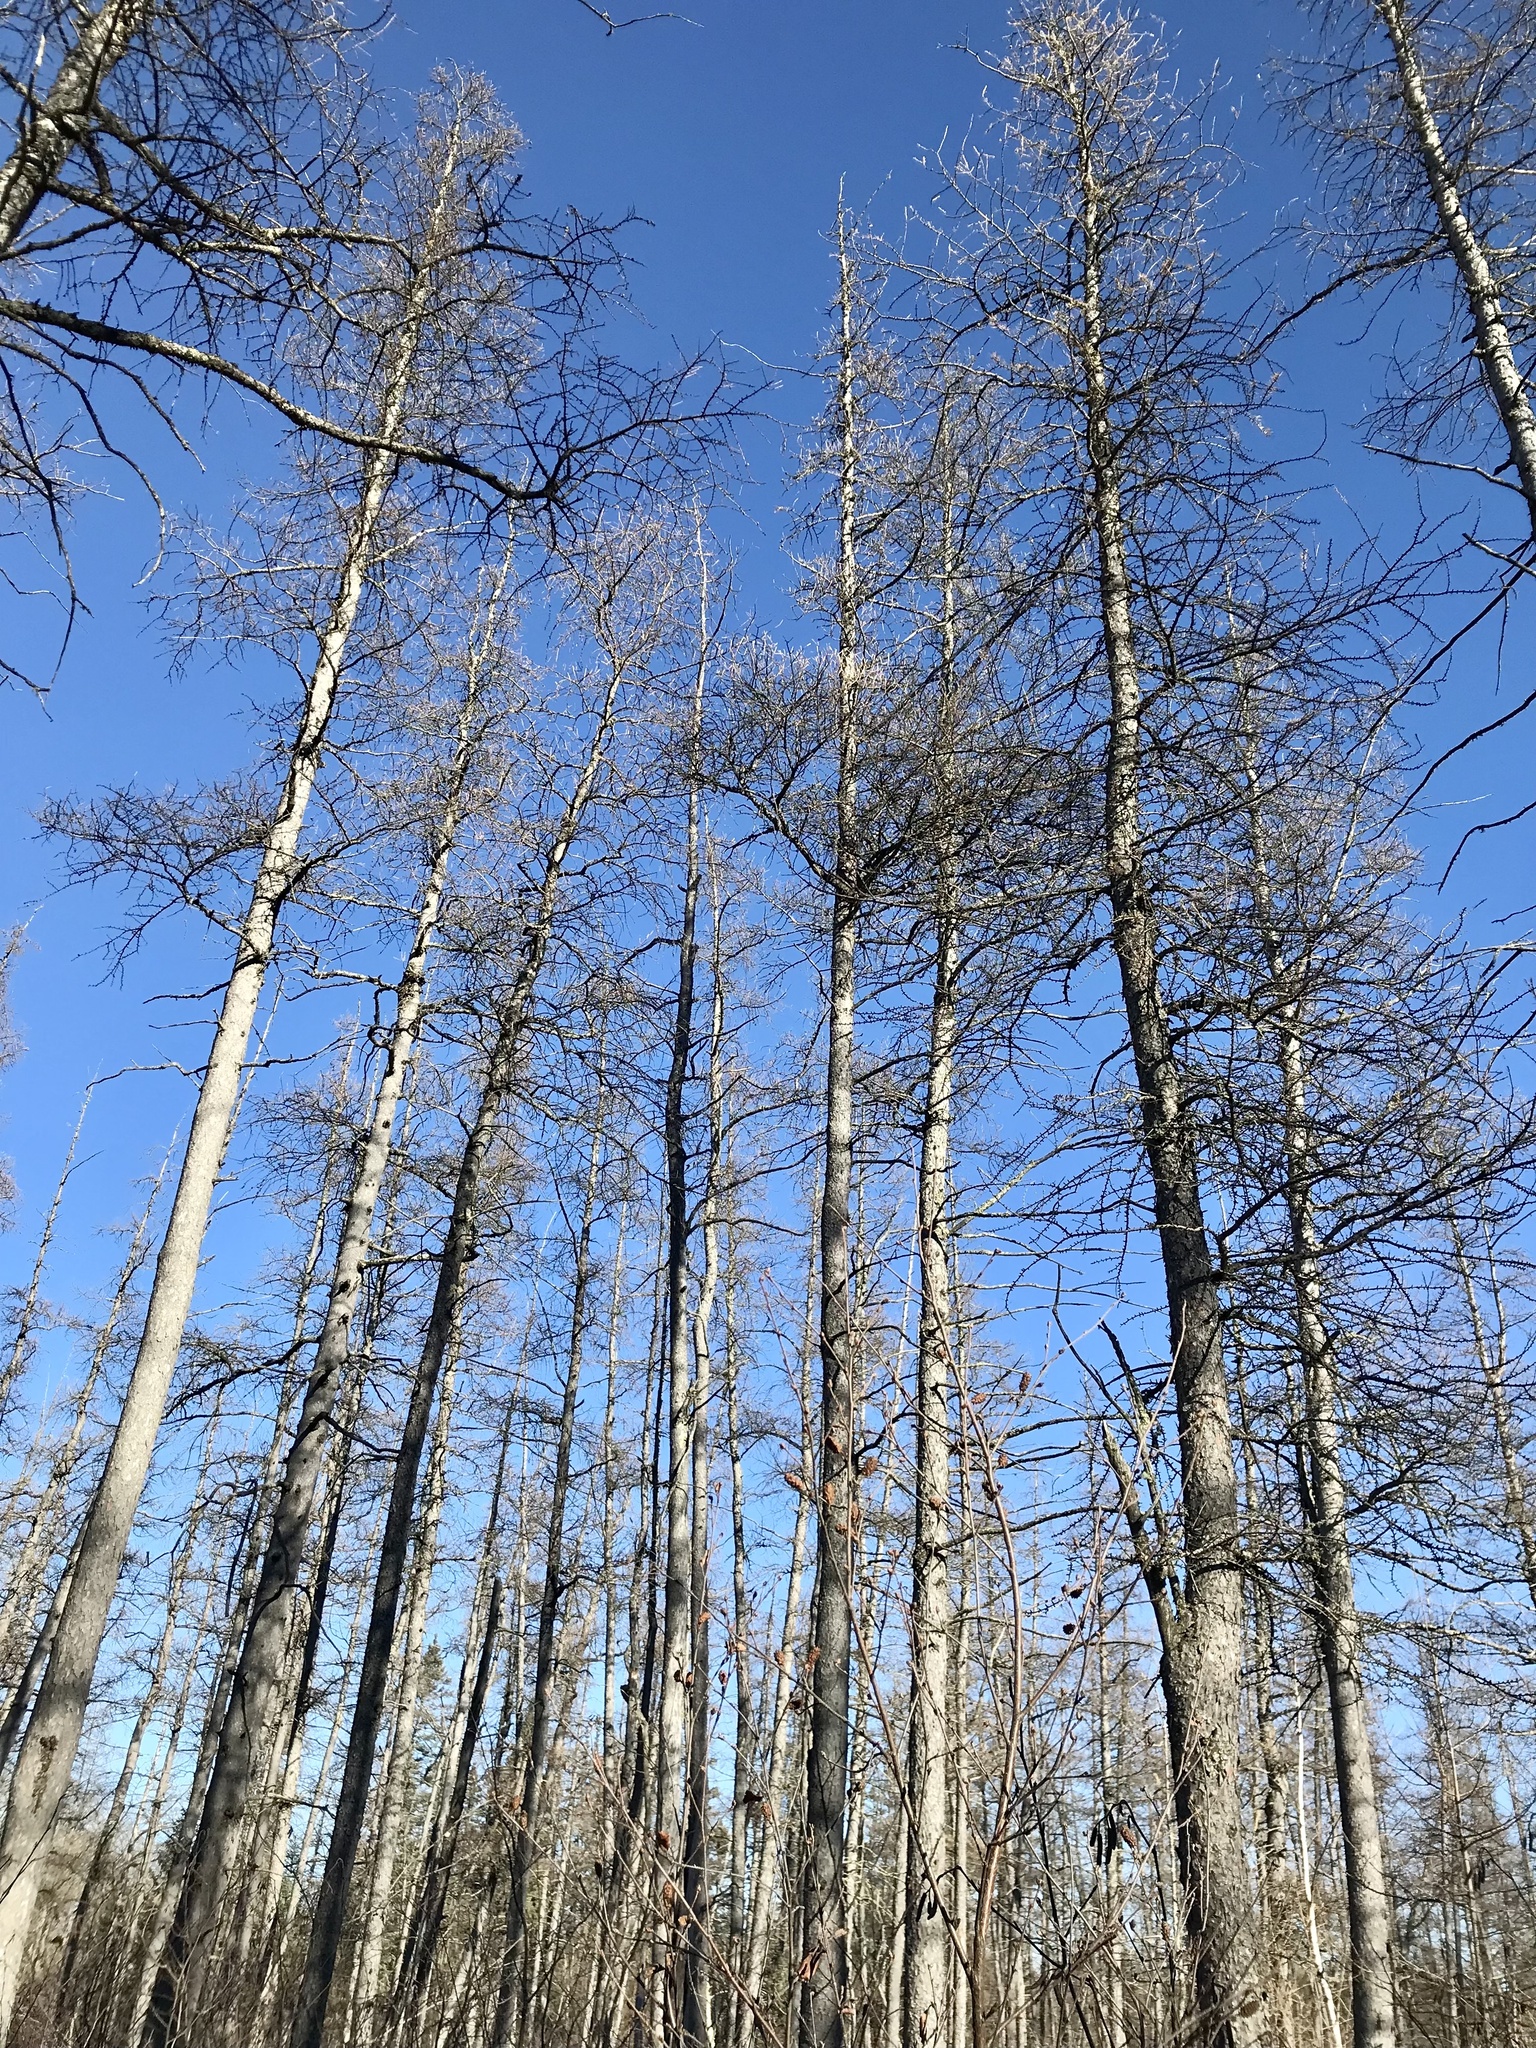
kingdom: Plantae
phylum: Tracheophyta
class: Pinopsida
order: Pinales
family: Pinaceae
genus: Larix
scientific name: Larix laricina
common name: American larch
